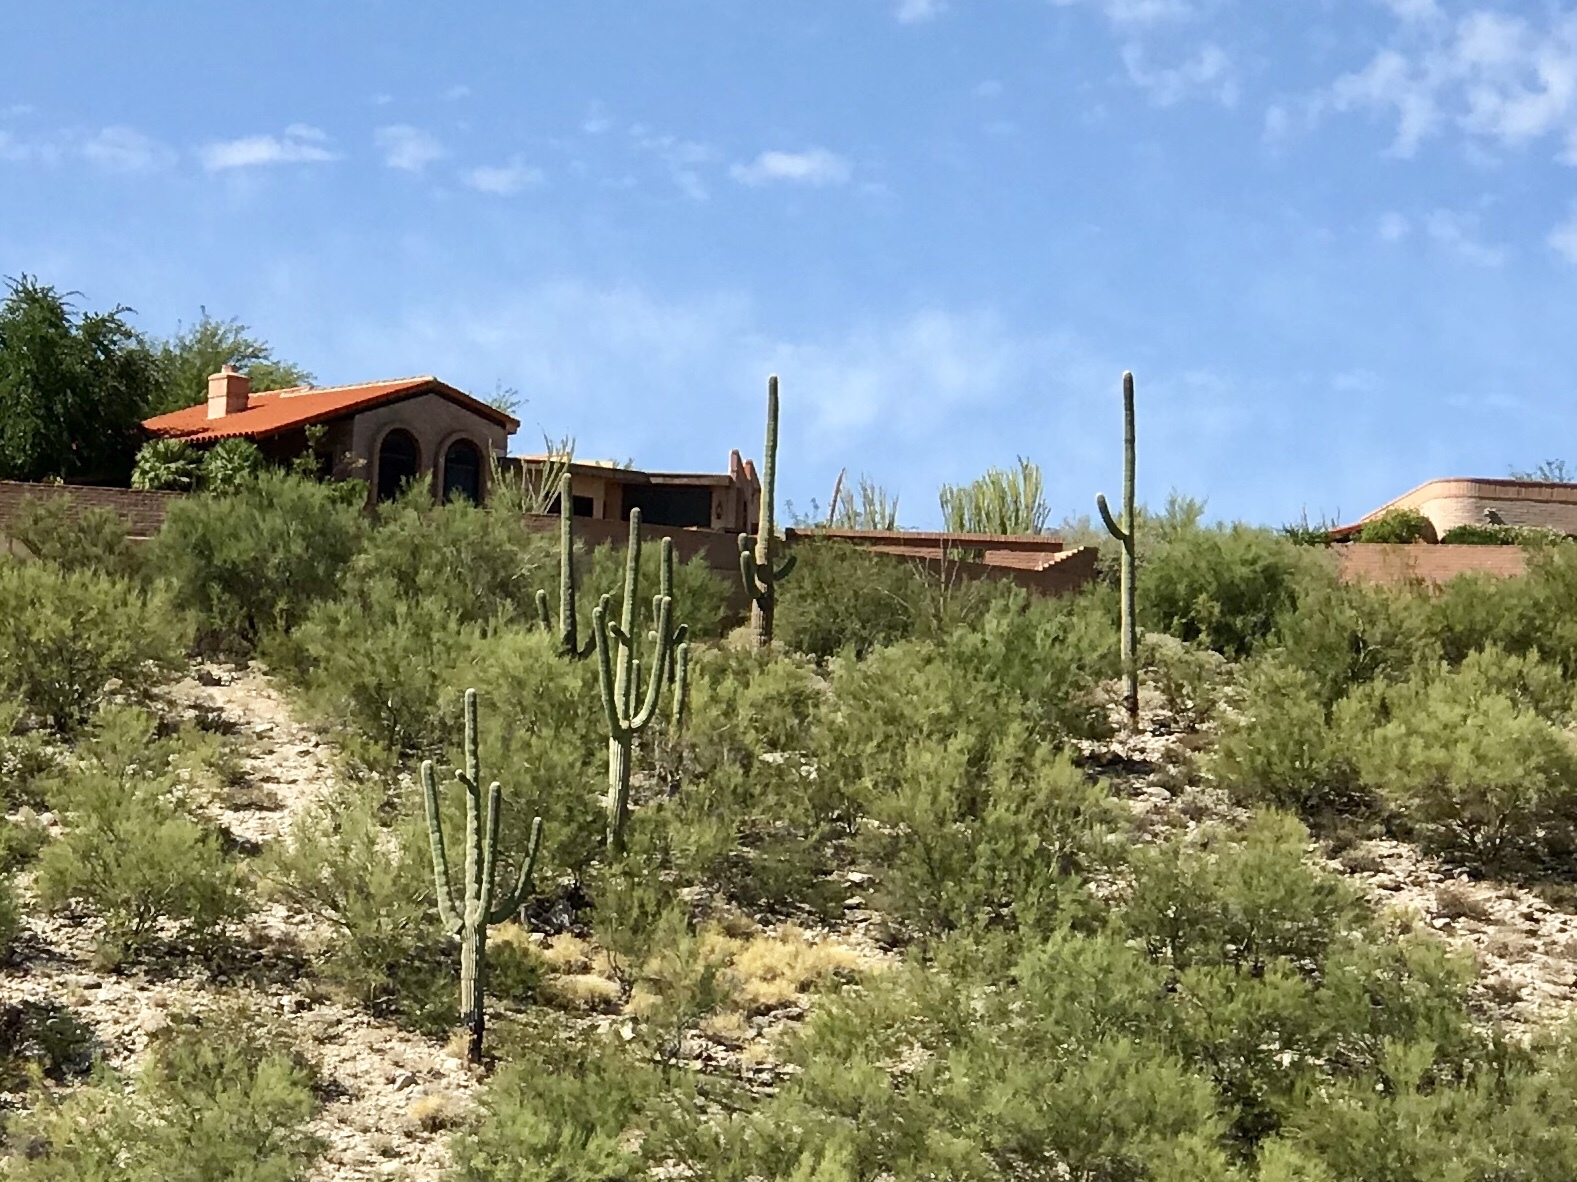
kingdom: Plantae
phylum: Tracheophyta
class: Magnoliopsida
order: Caryophyllales
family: Cactaceae
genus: Carnegiea
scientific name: Carnegiea gigantea
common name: Saguaro
